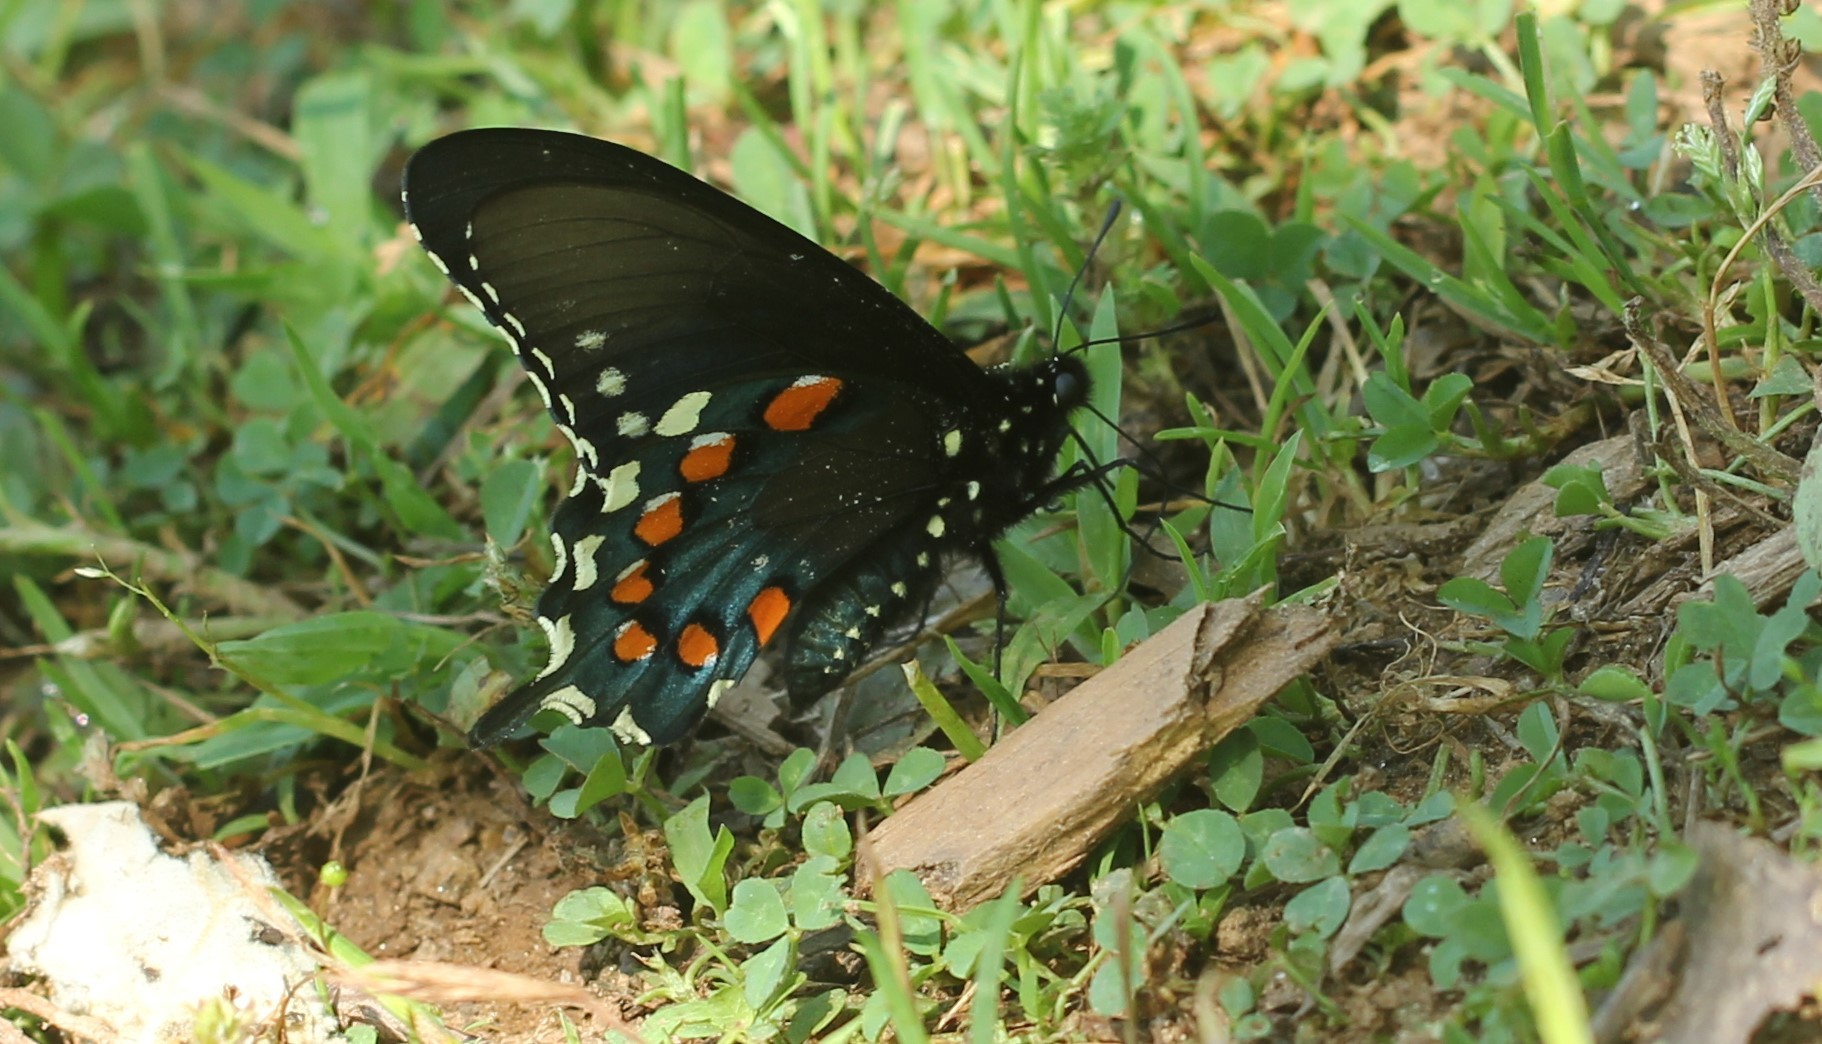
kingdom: Animalia
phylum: Arthropoda
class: Insecta
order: Lepidoptera
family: Papilionidae
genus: Battus
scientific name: Battus philenor
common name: Pipevine swallowtail
